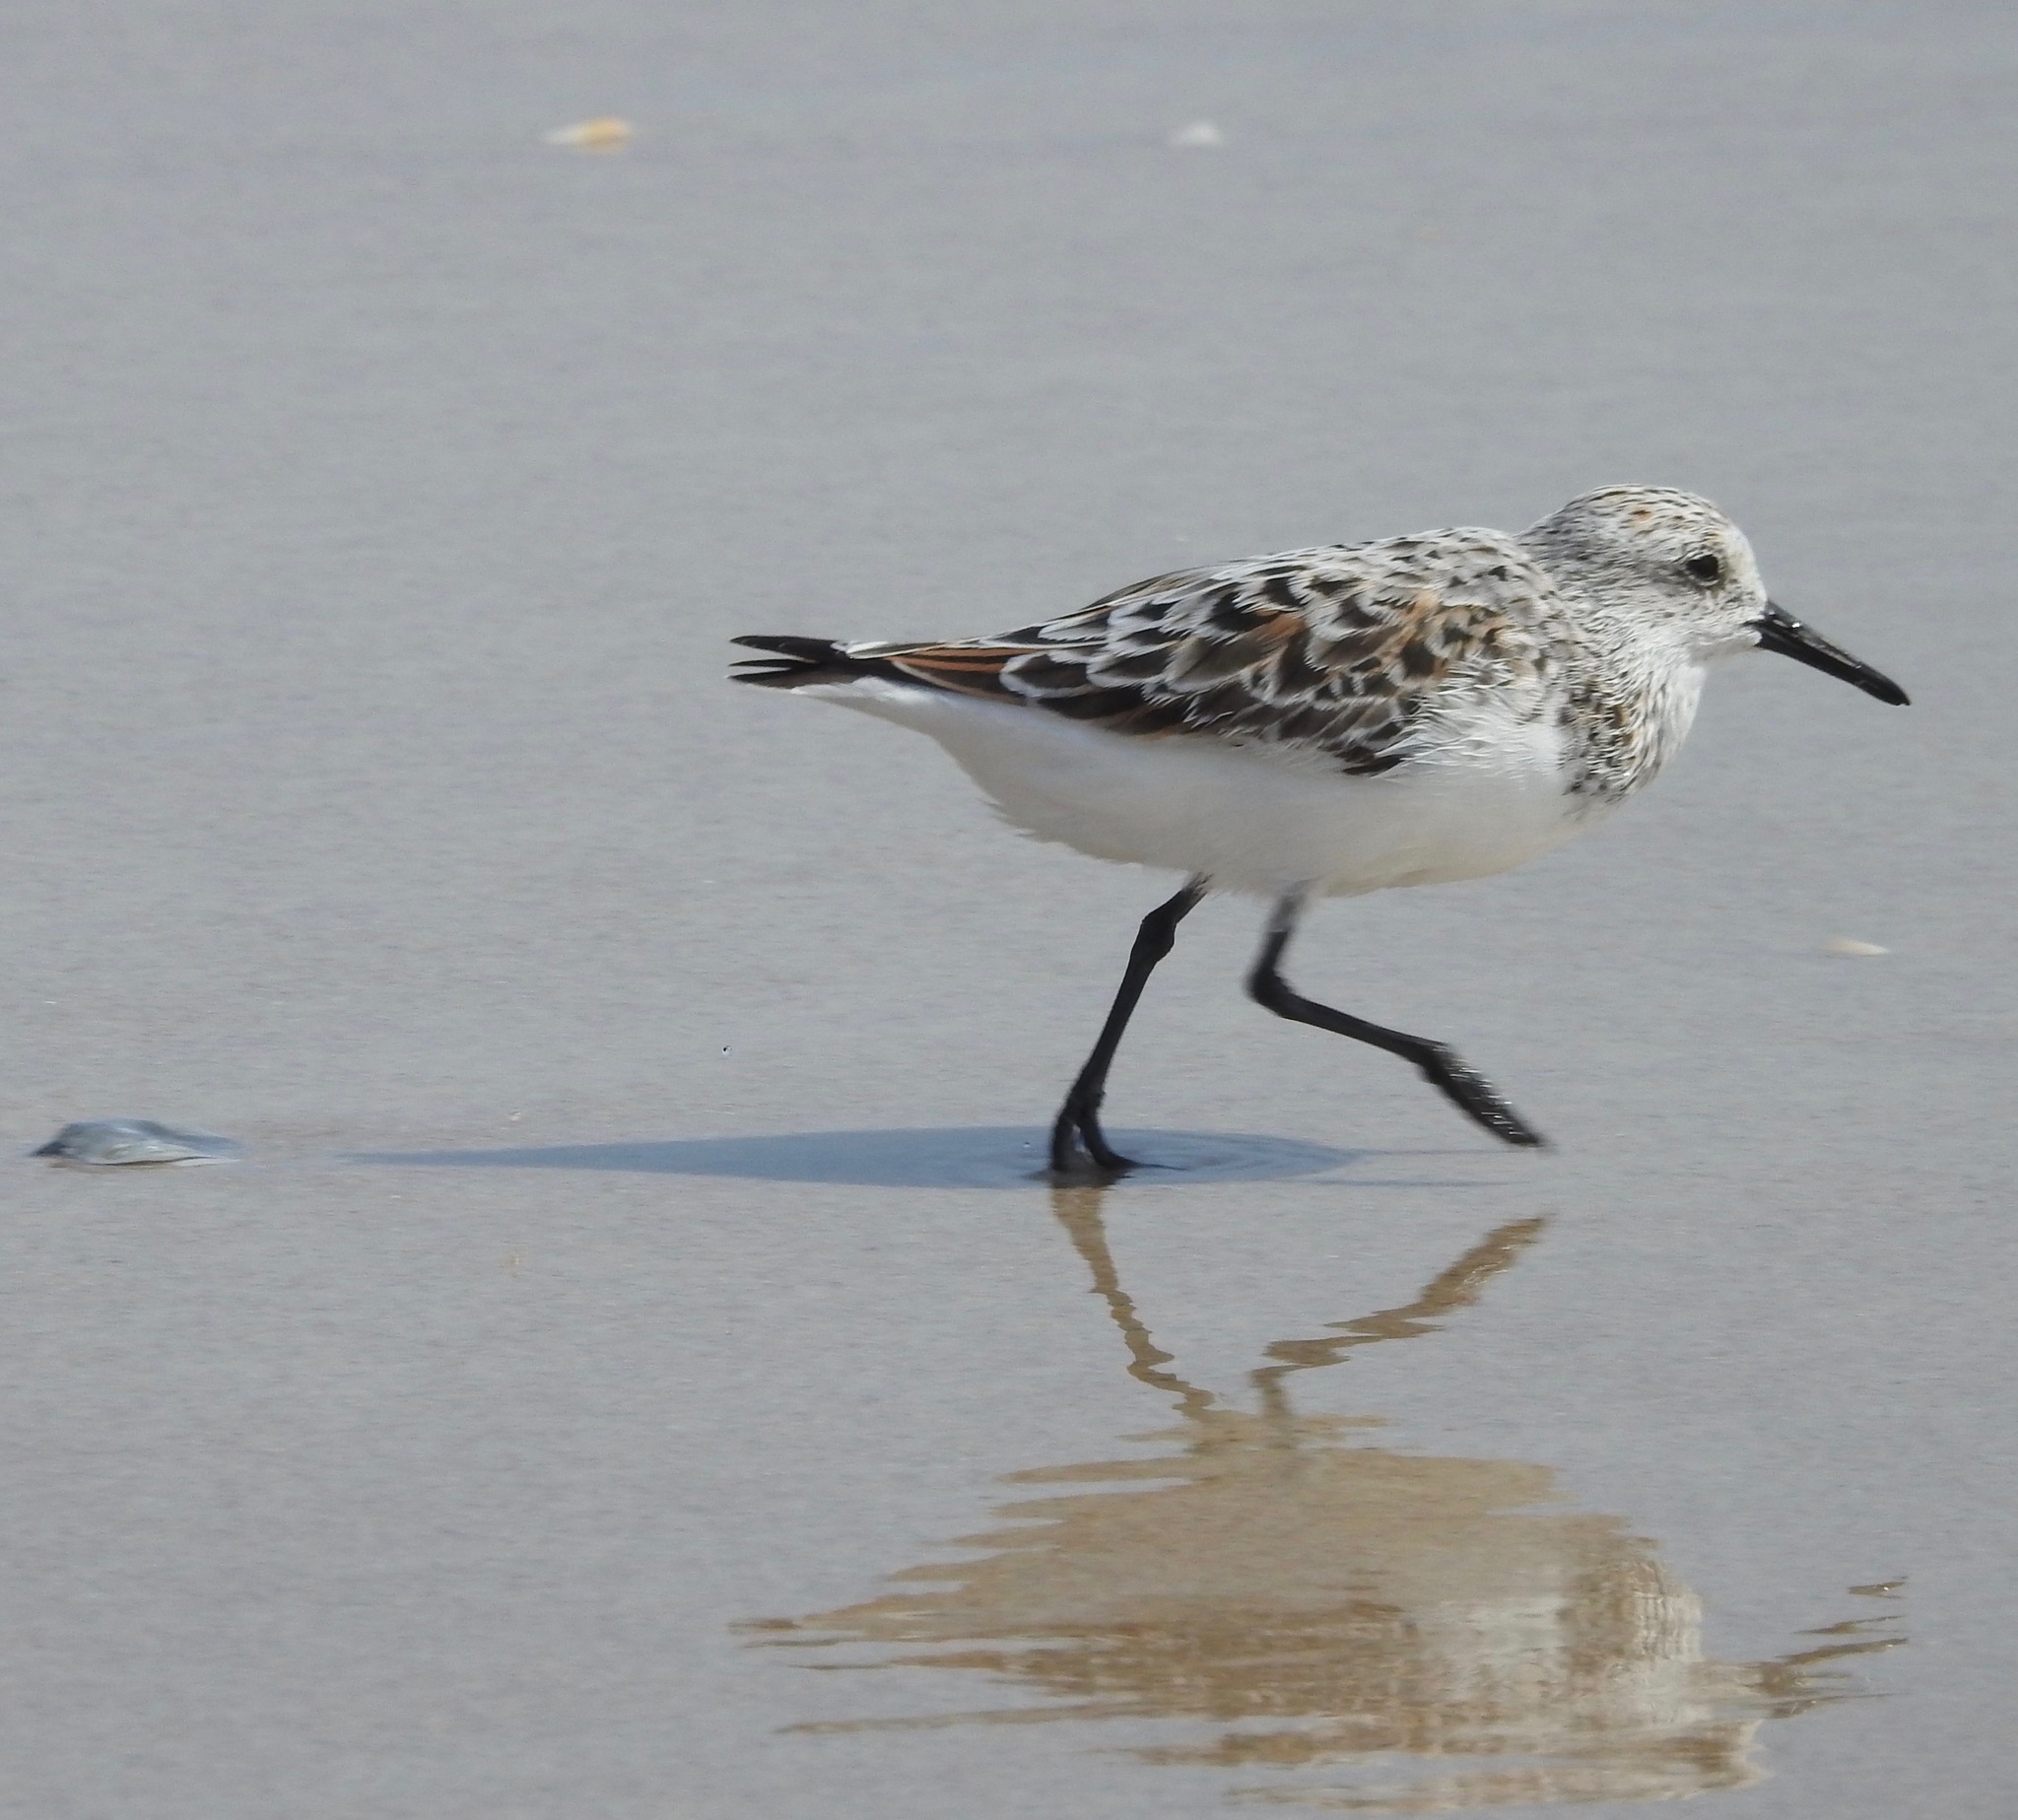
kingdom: Animalia
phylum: Chordata
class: Aves
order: Charadriiformes
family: Scolopacidae
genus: Calidris
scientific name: Calidris alba
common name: Sanderling
